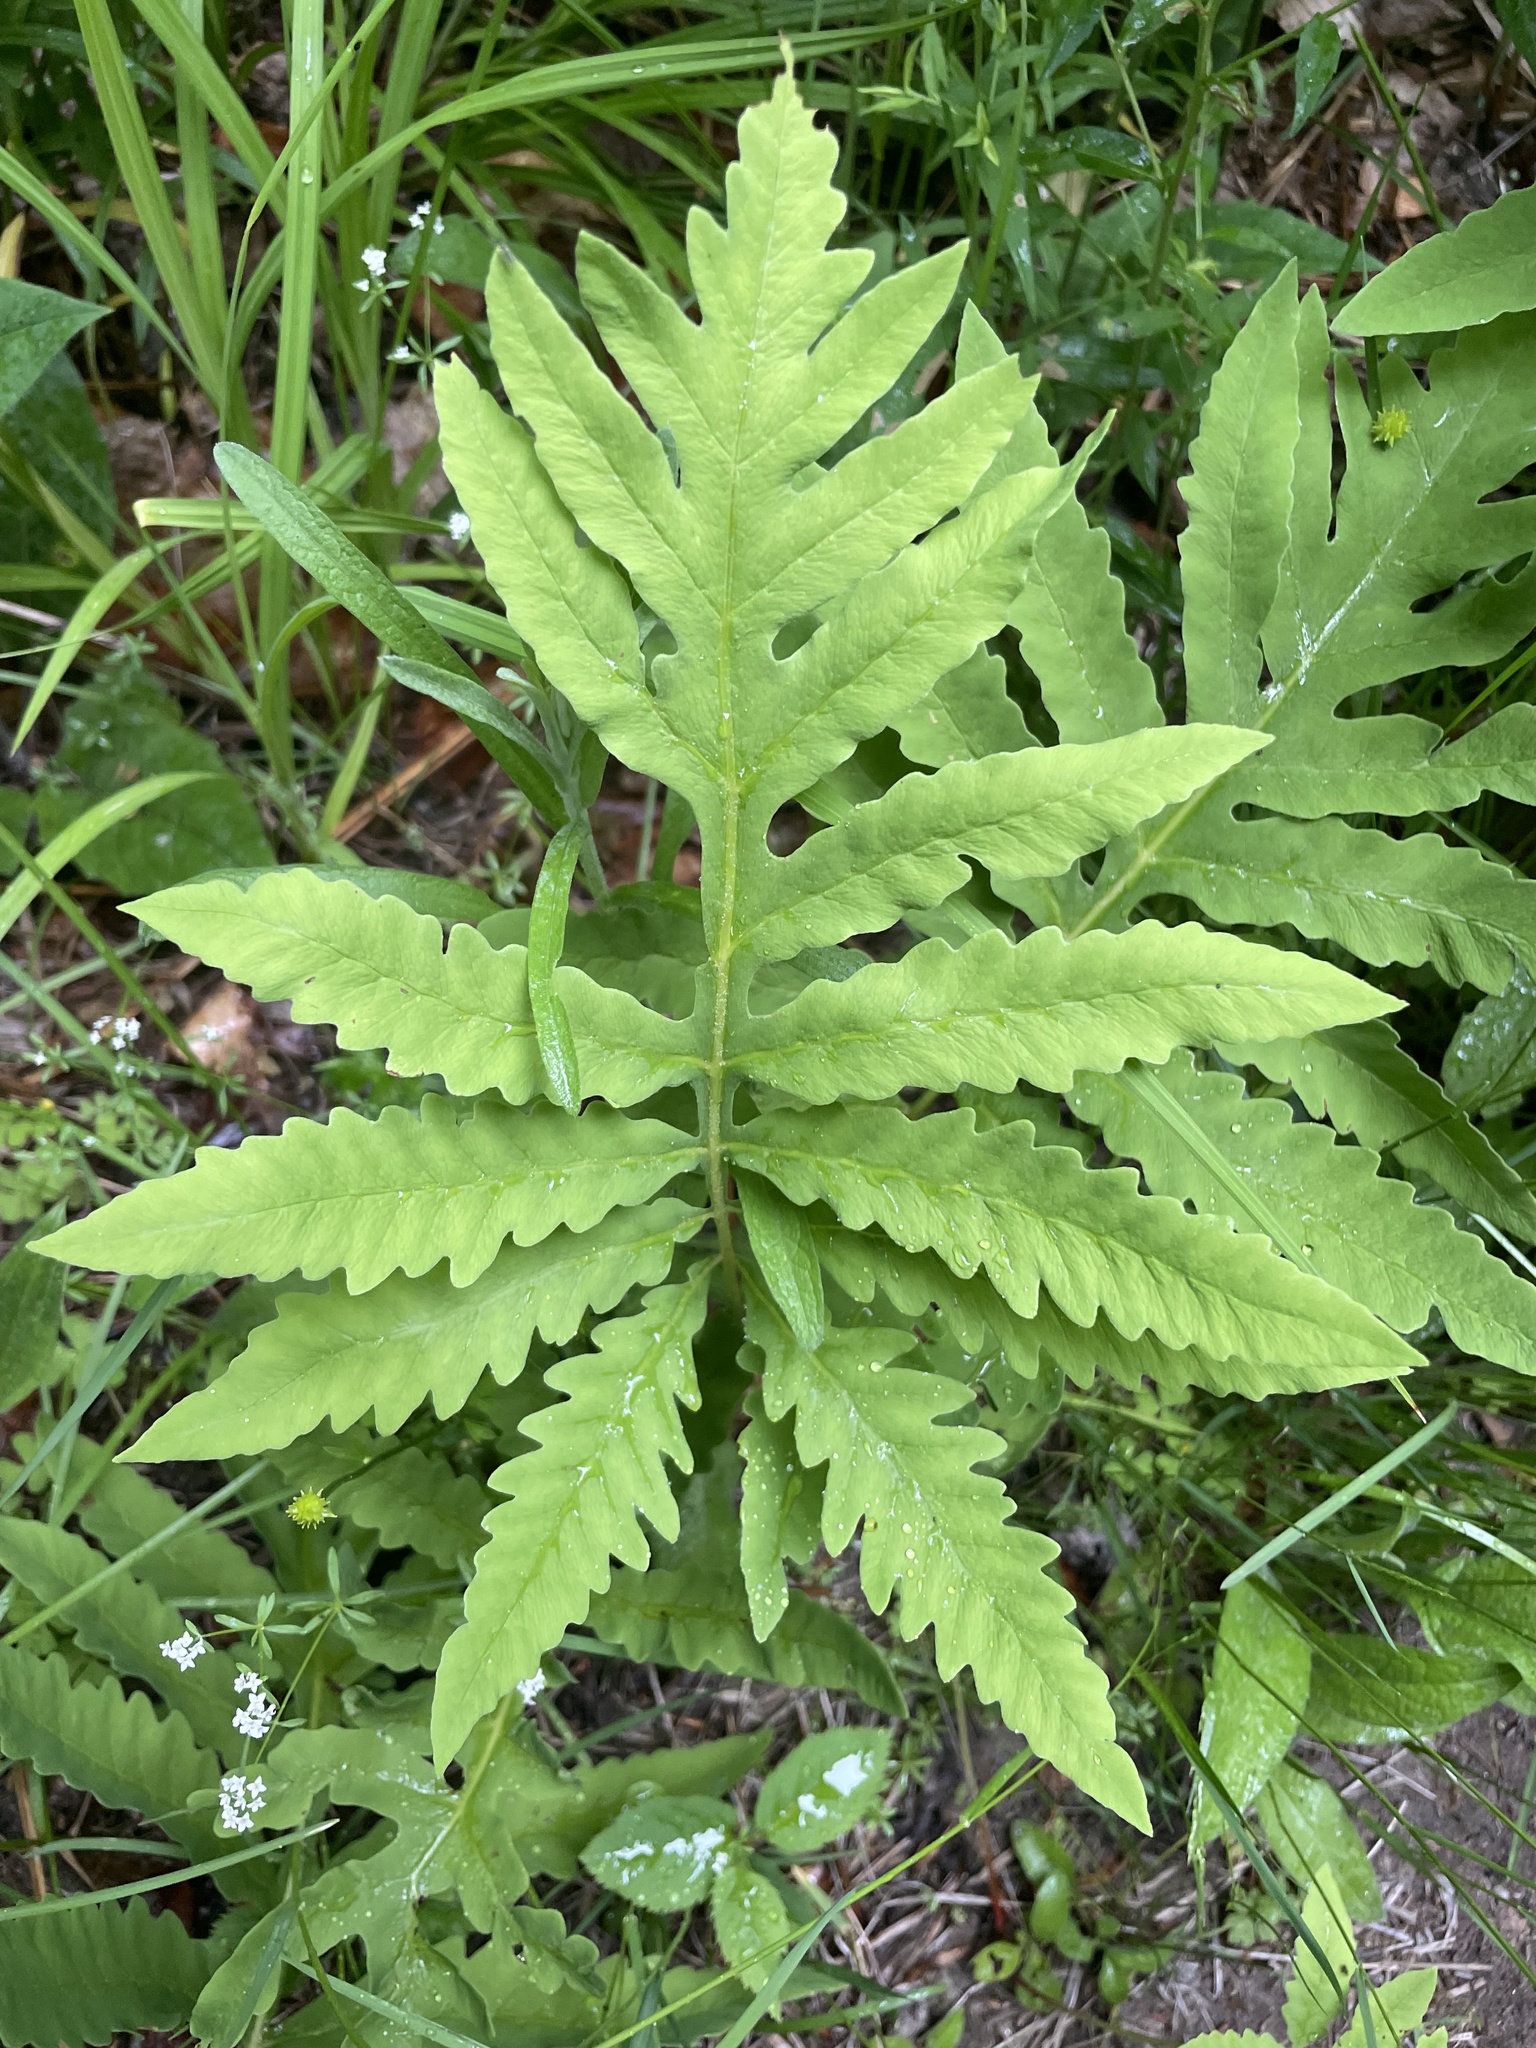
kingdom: Plantae
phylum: Tracheophyta
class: Polypodiopsida
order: Polypodiales
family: Onocleaceae
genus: Onoclea
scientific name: Onoclea sensibilis
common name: Sensitive fern
